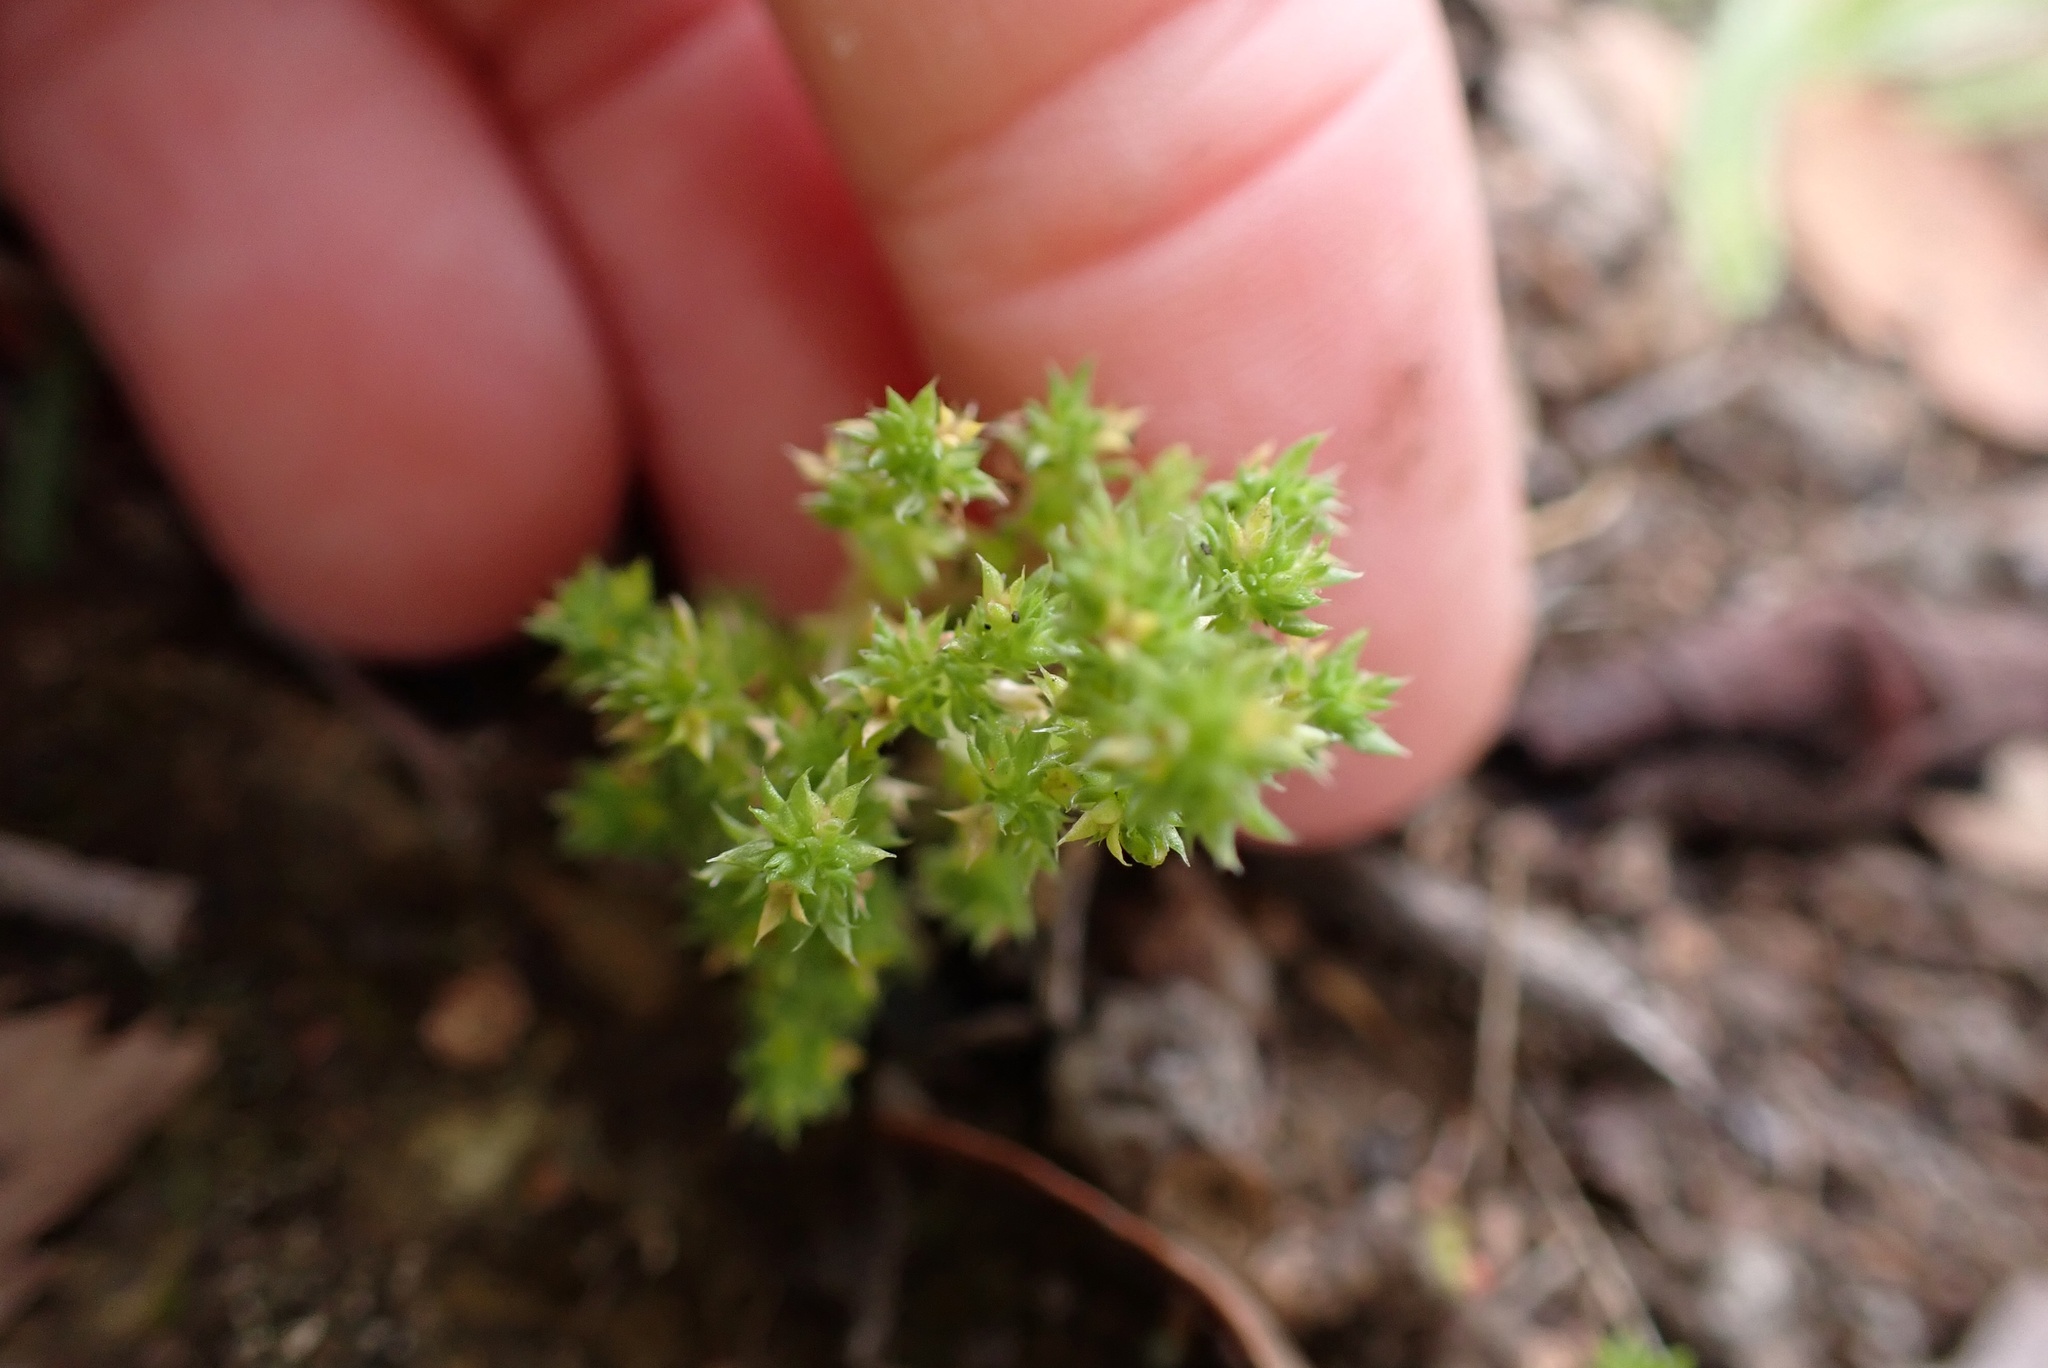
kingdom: Plantae
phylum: Tracheophyta
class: Magnoliopsida
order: Saxifragales
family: Crassulaceae
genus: Crassula
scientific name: Crassula tillaea
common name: Mossy stonecrop
